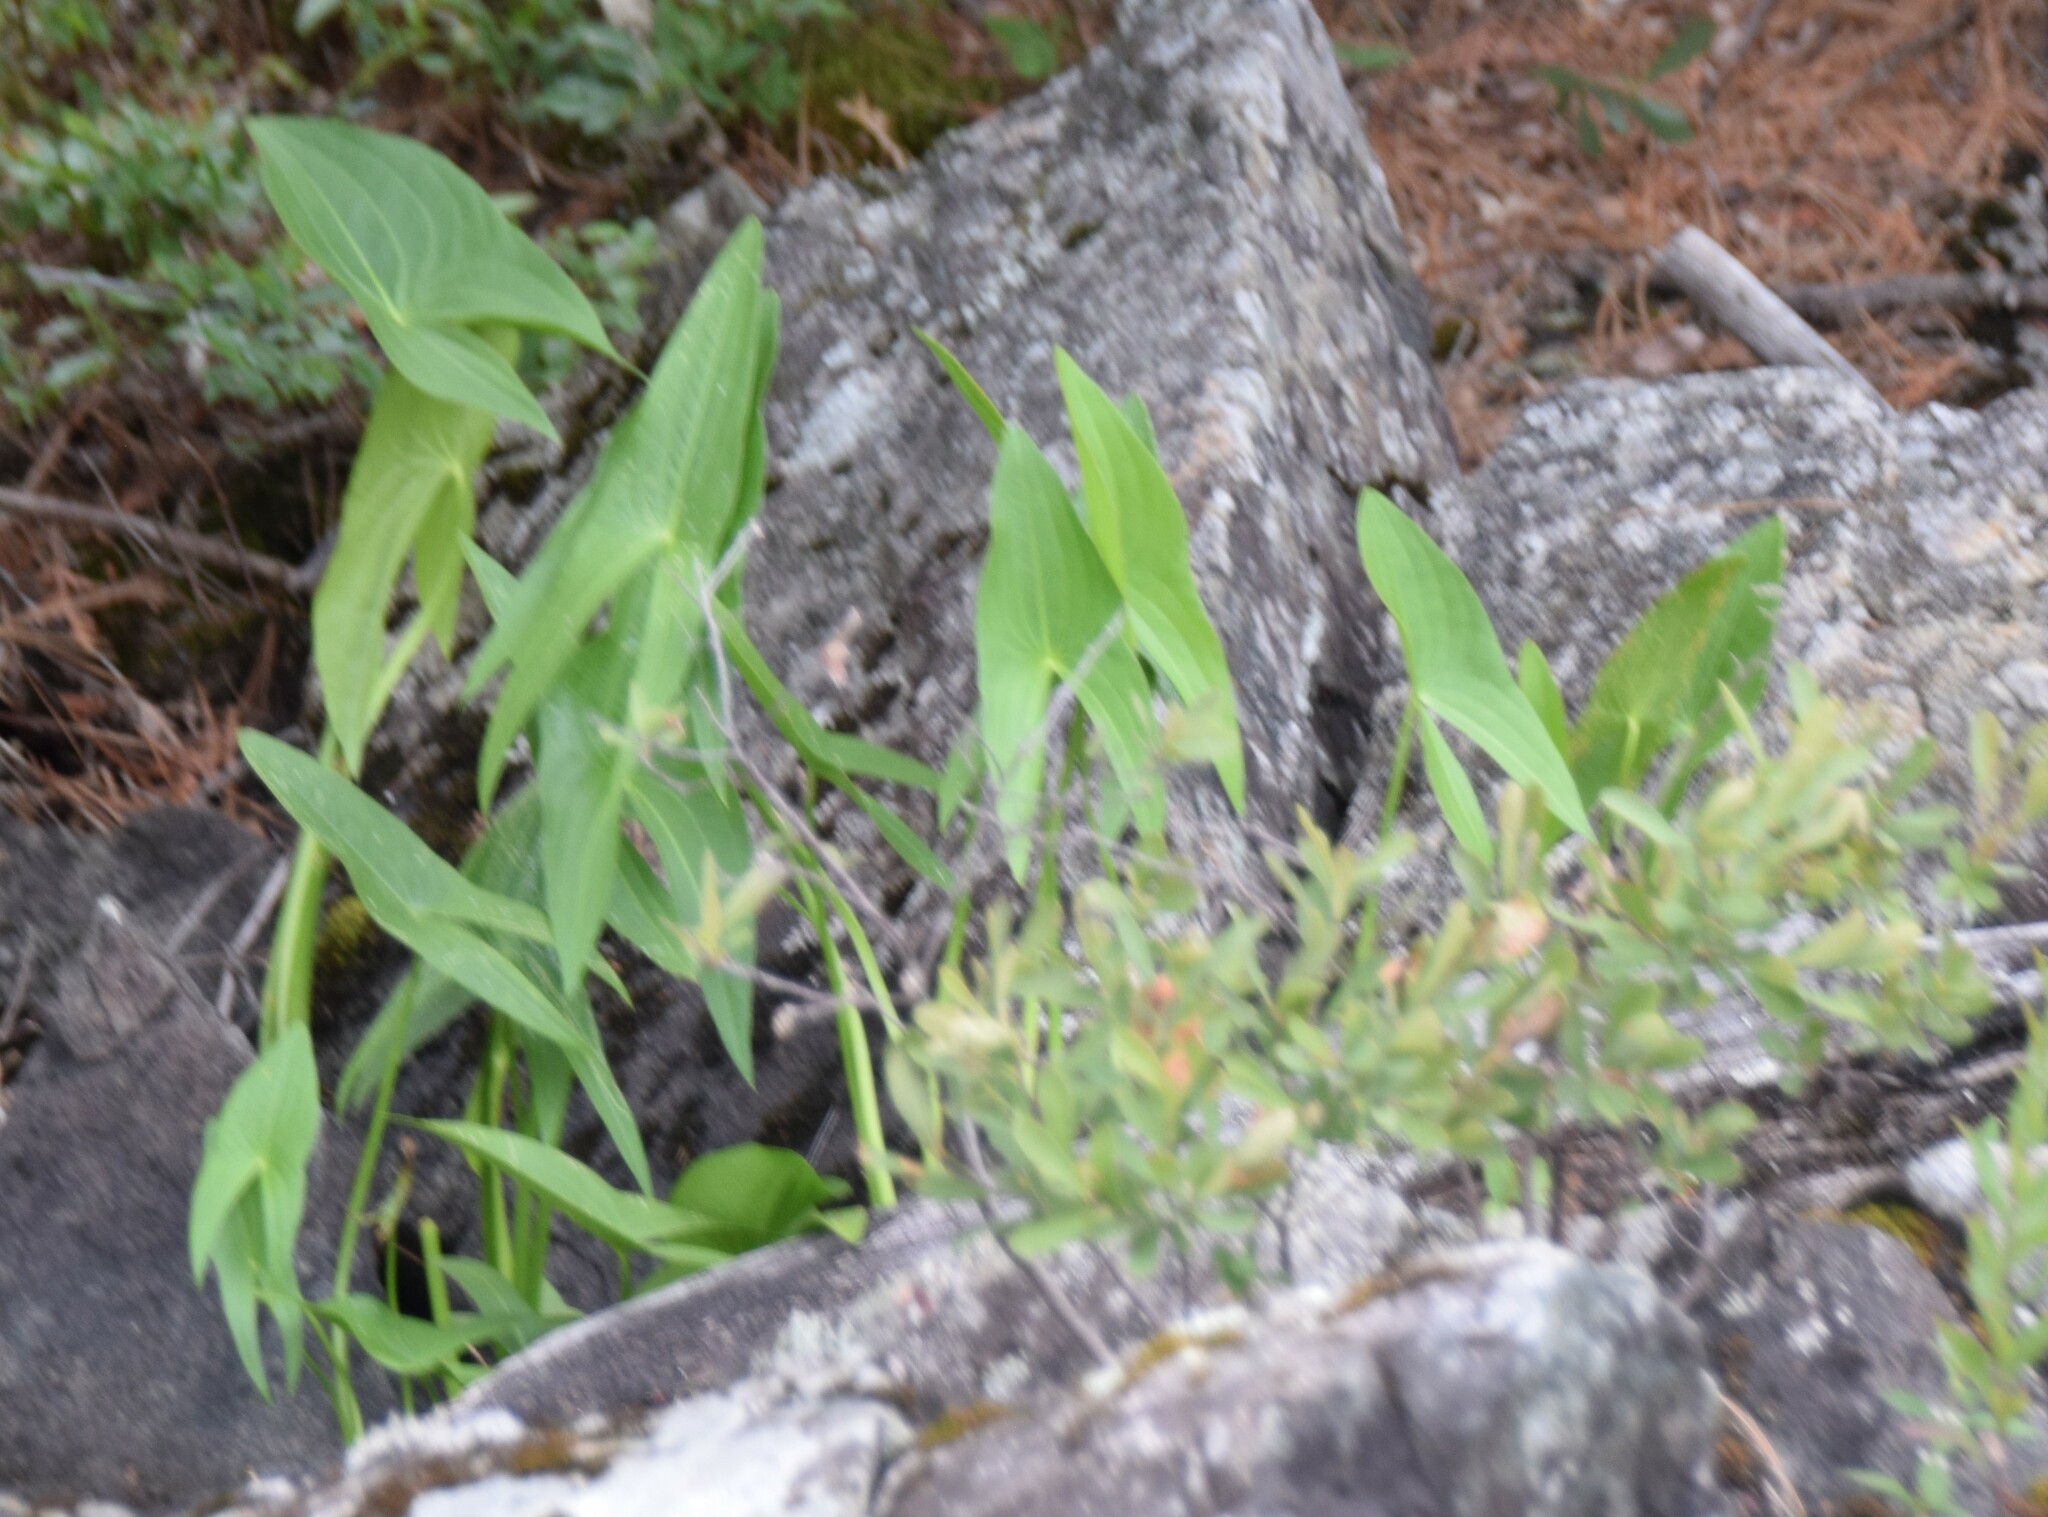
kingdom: Plantae
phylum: Tracheophyta
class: Liliopsida
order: Alismatales
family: Alismataceae
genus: Sagittaria
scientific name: Sagittaria latifolia
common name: Duck-potato
